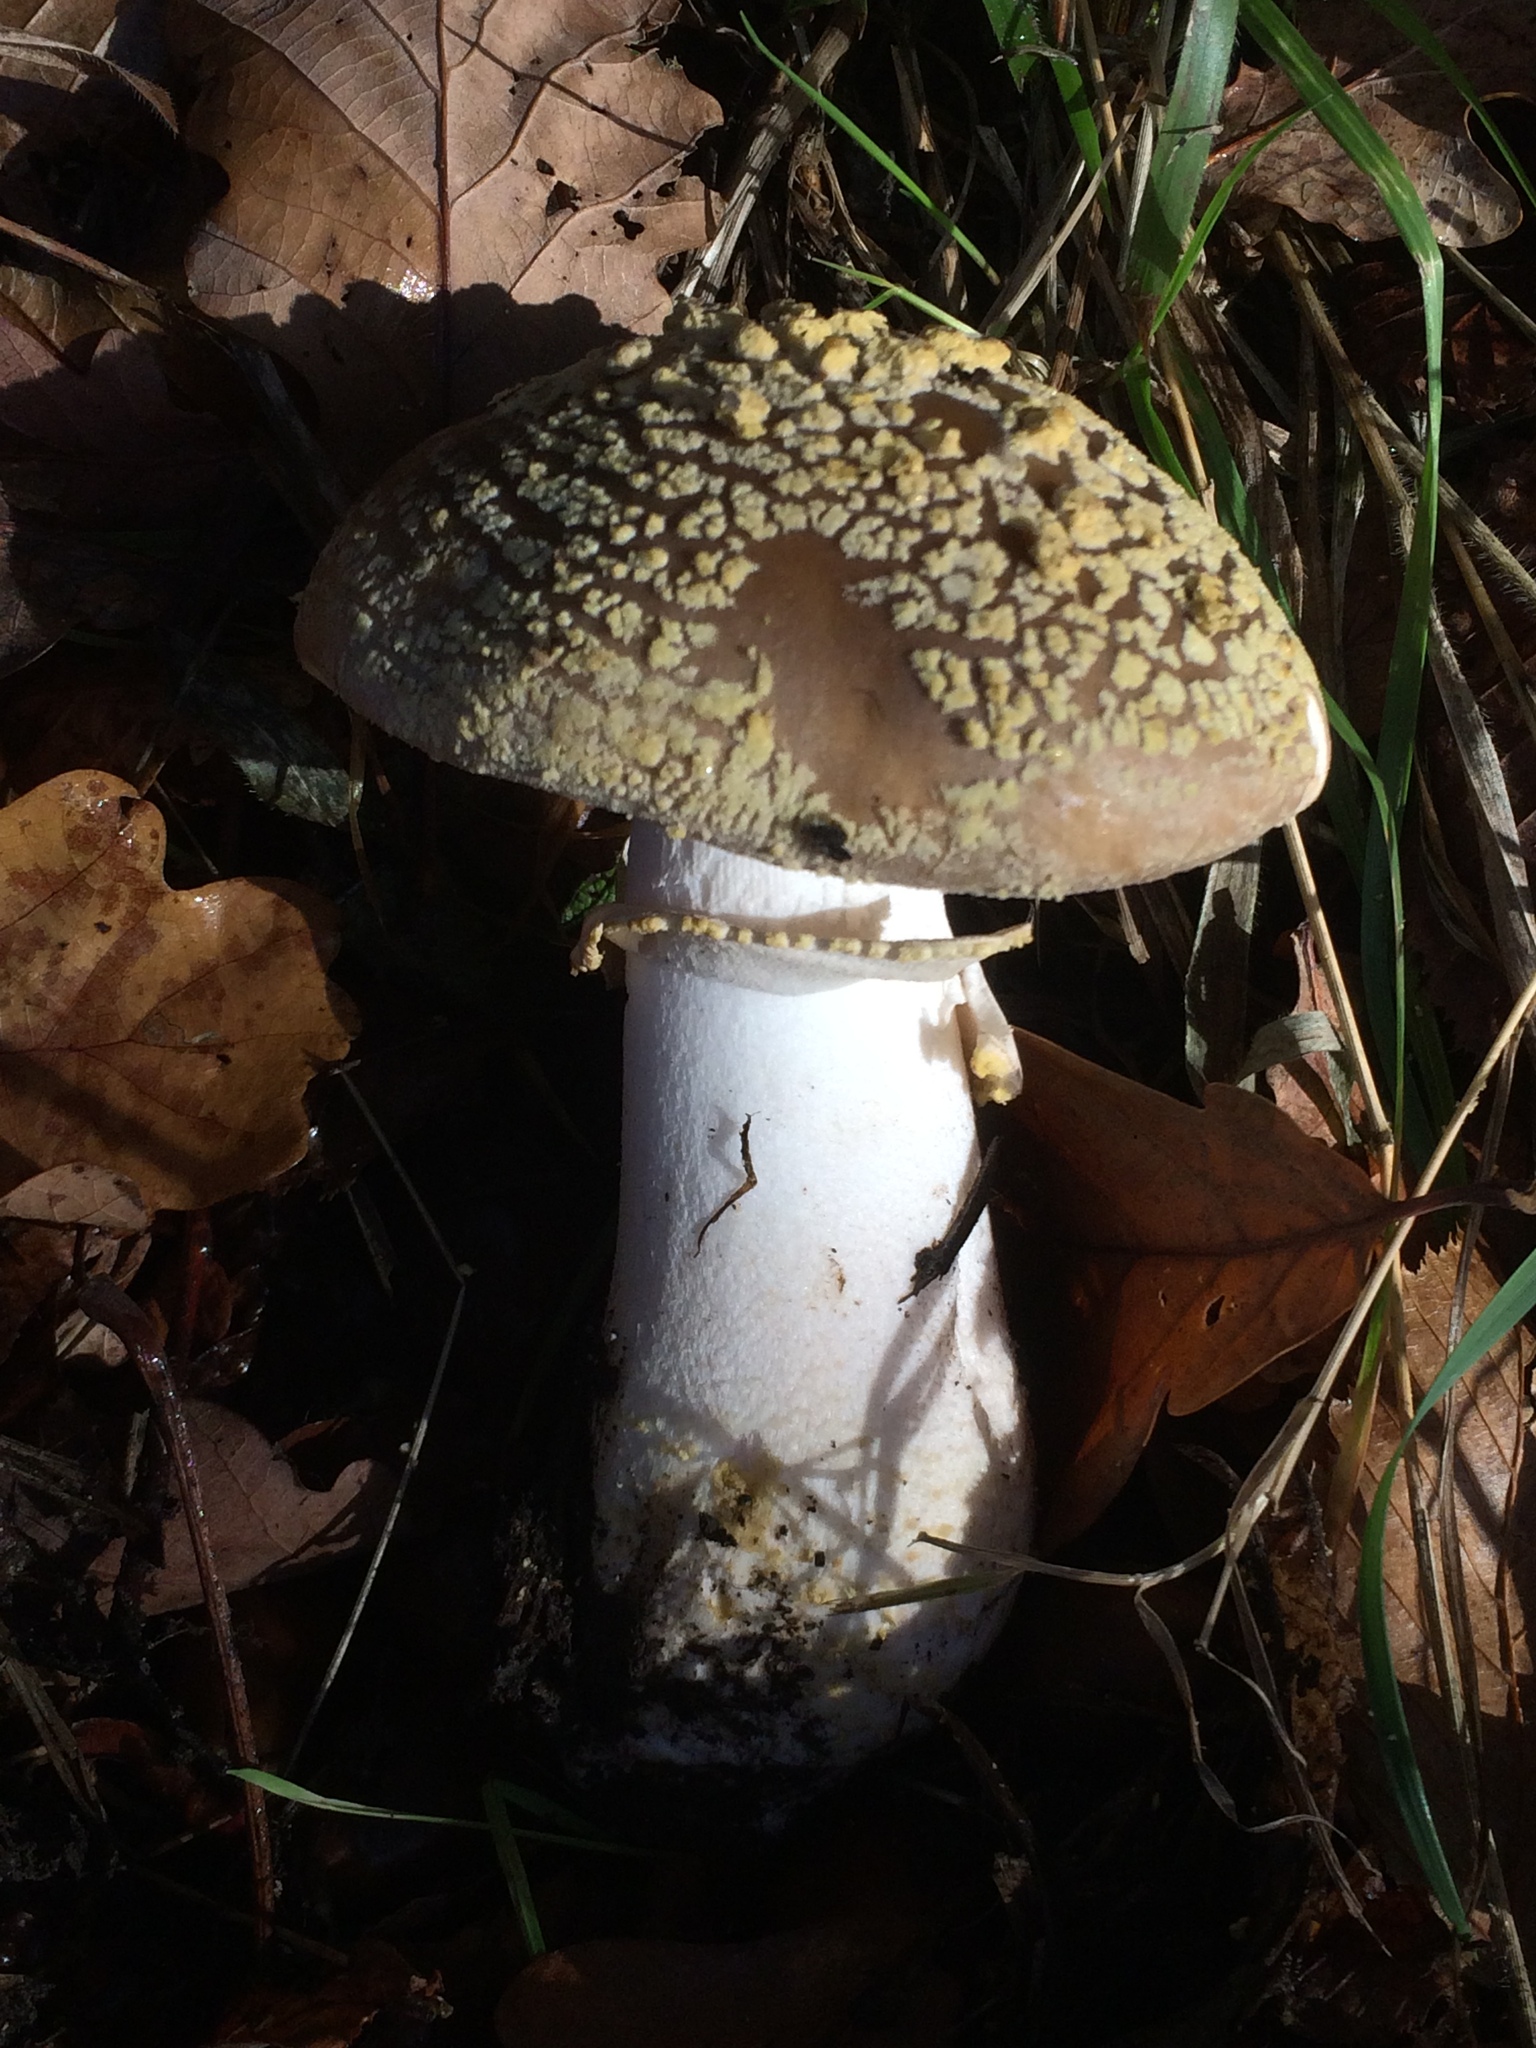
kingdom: Fungi
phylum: Basidiomycota
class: Agaricomycetes
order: Agaricales
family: Amanitaceae
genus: Amanita
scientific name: Amanita franchetii
